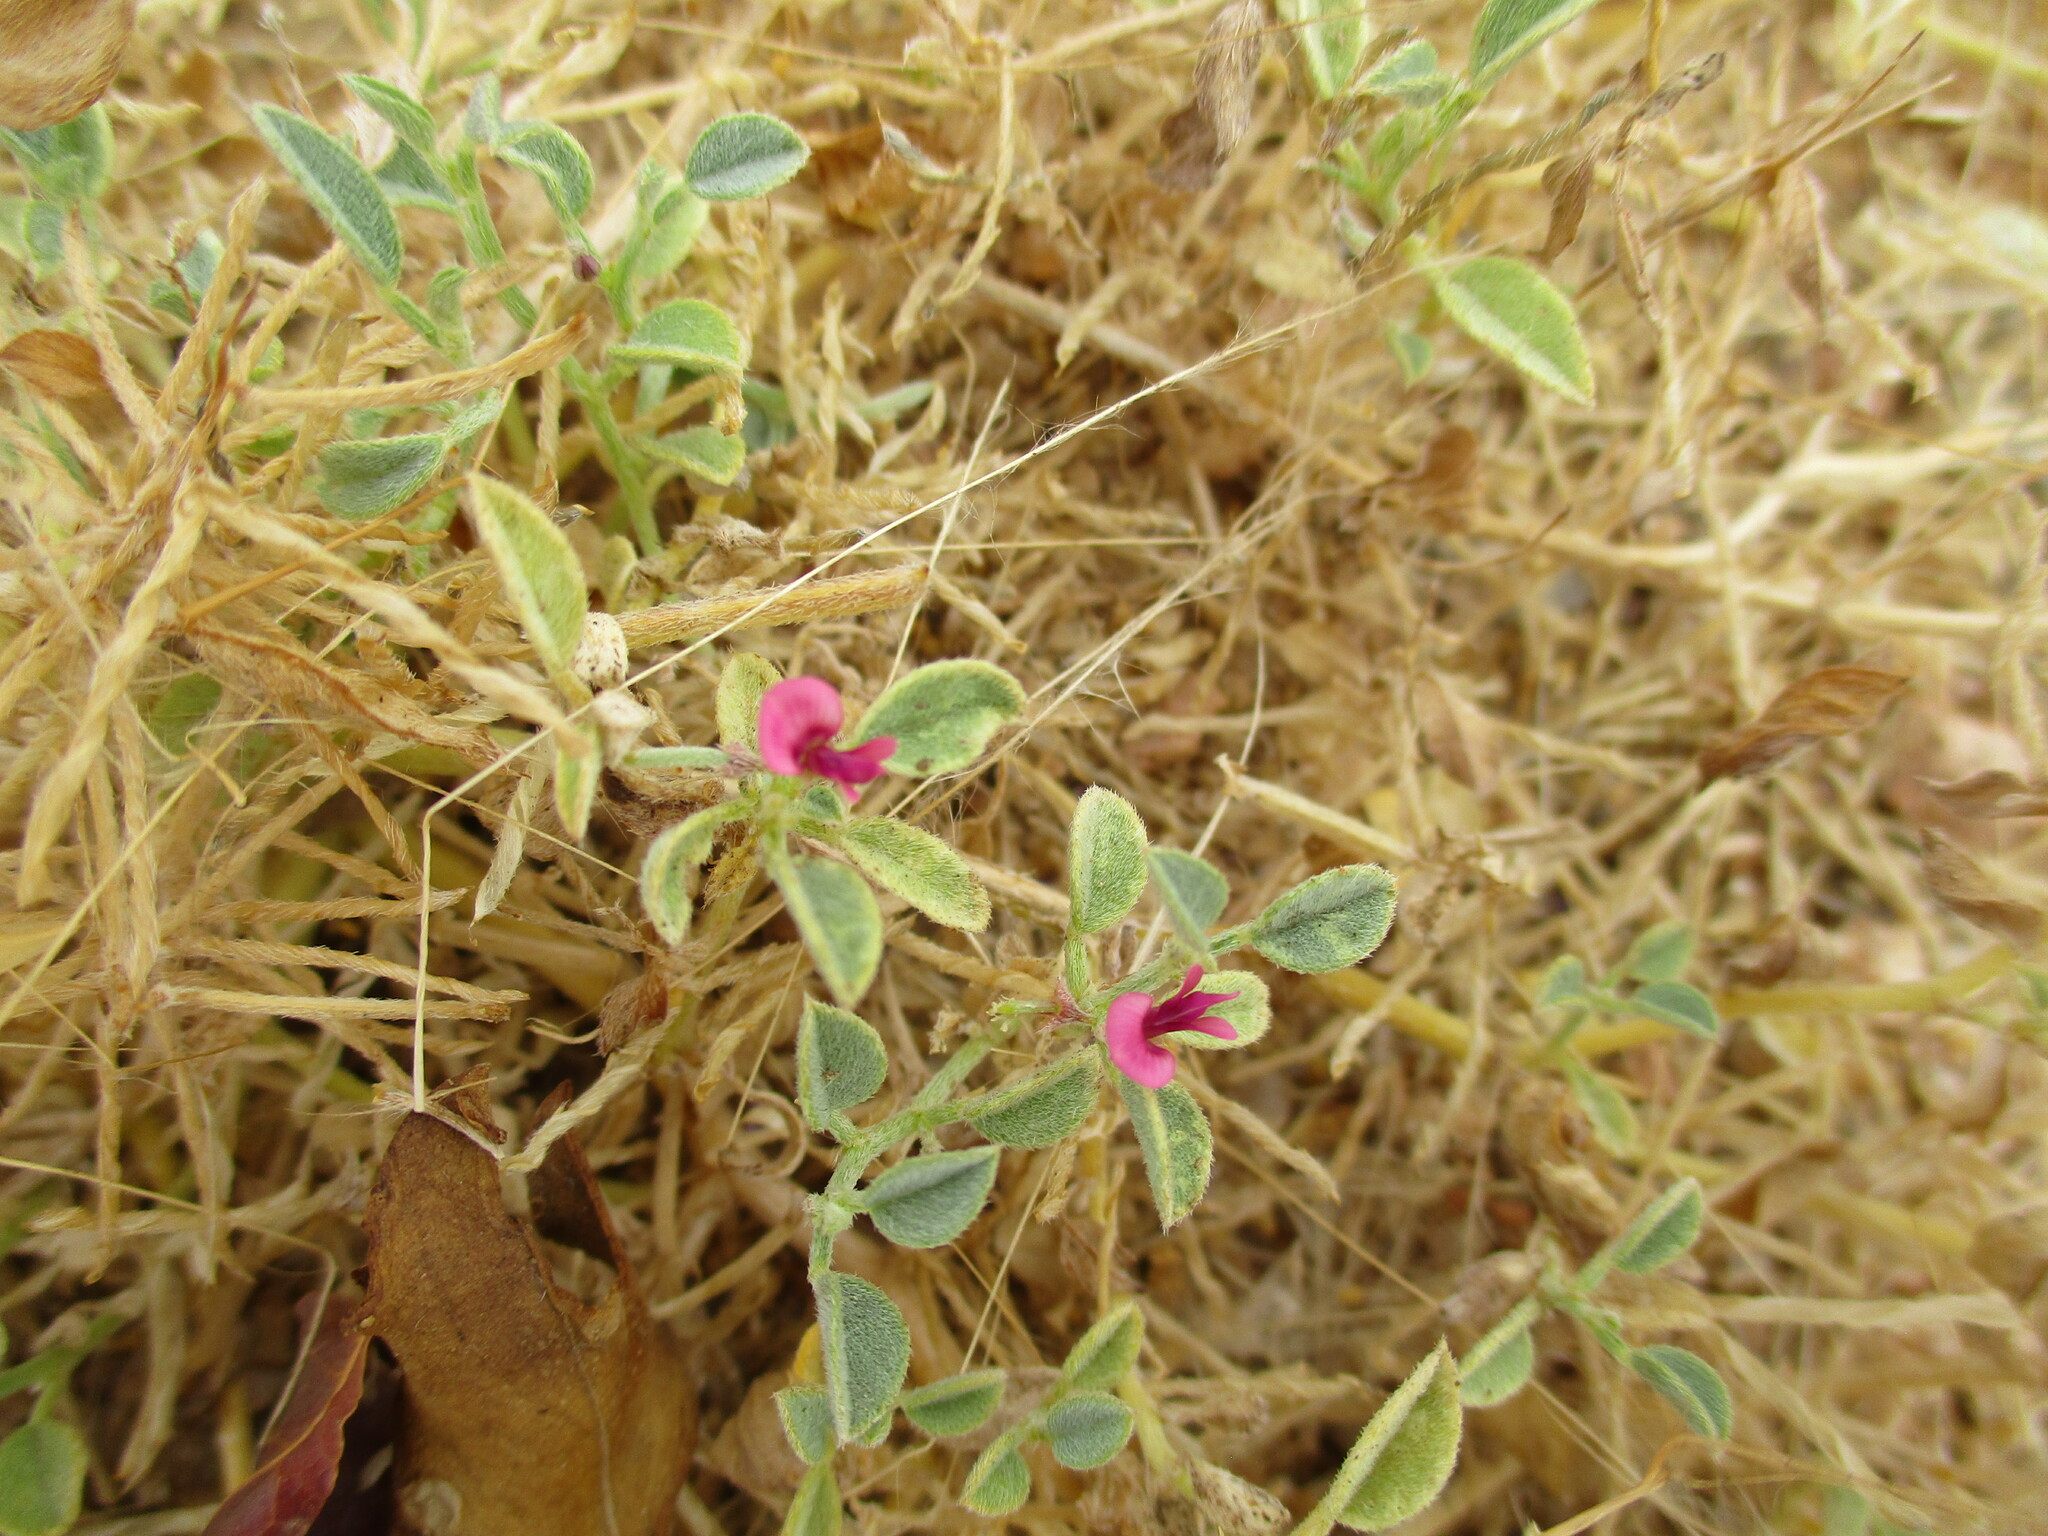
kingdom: Plantae
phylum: Tracheophyta
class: Magnoliopsida
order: Fabales
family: Fabaceae
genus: Indigofera
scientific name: Indigofera auricoma
